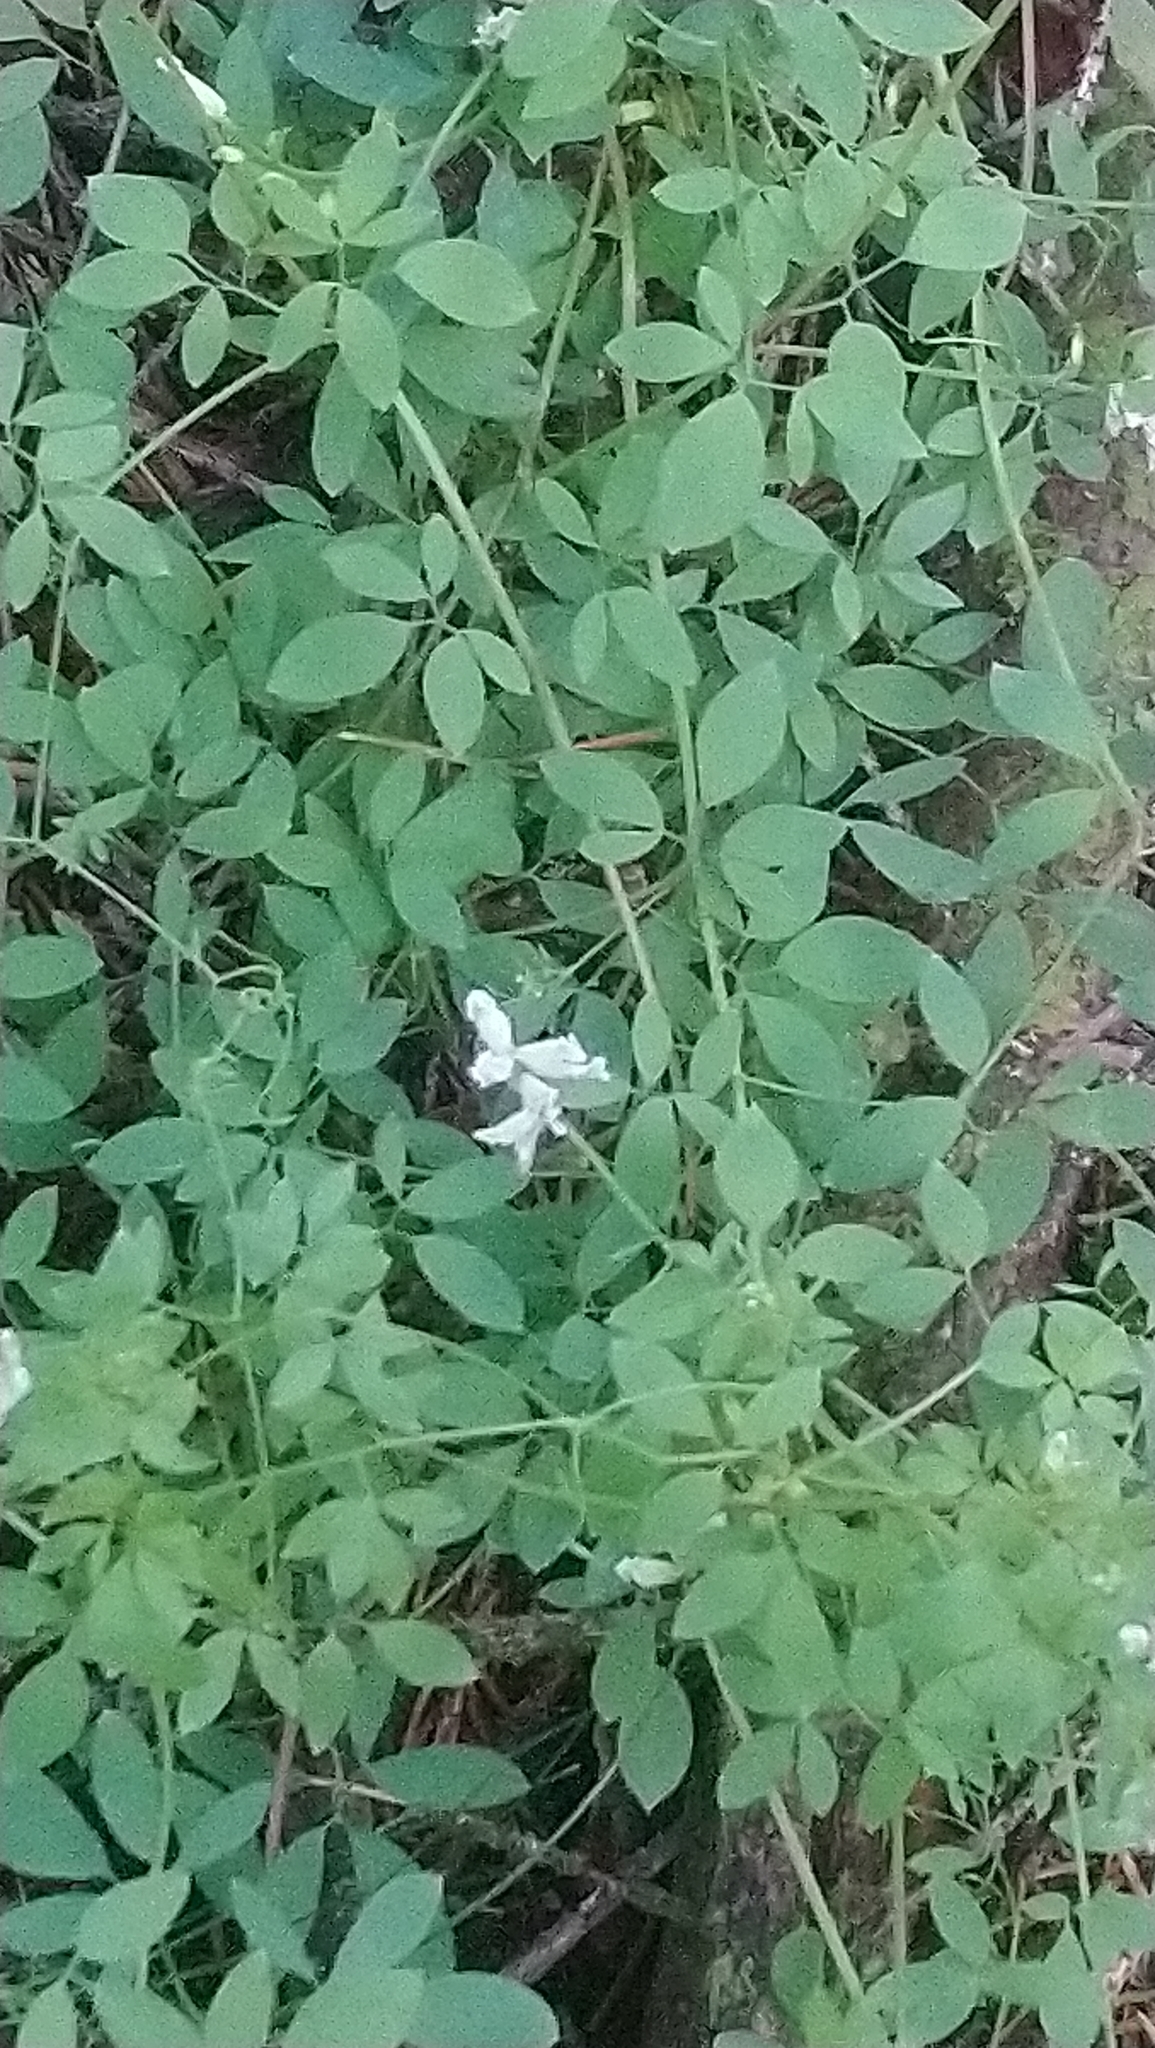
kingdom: Plantae
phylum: Tracheophyta
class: Magnoliopsida
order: Ranunculales
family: Papaveraceae
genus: Ceratocapnos
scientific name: Ceratocapnos claviculata
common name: Climbing corydalis
